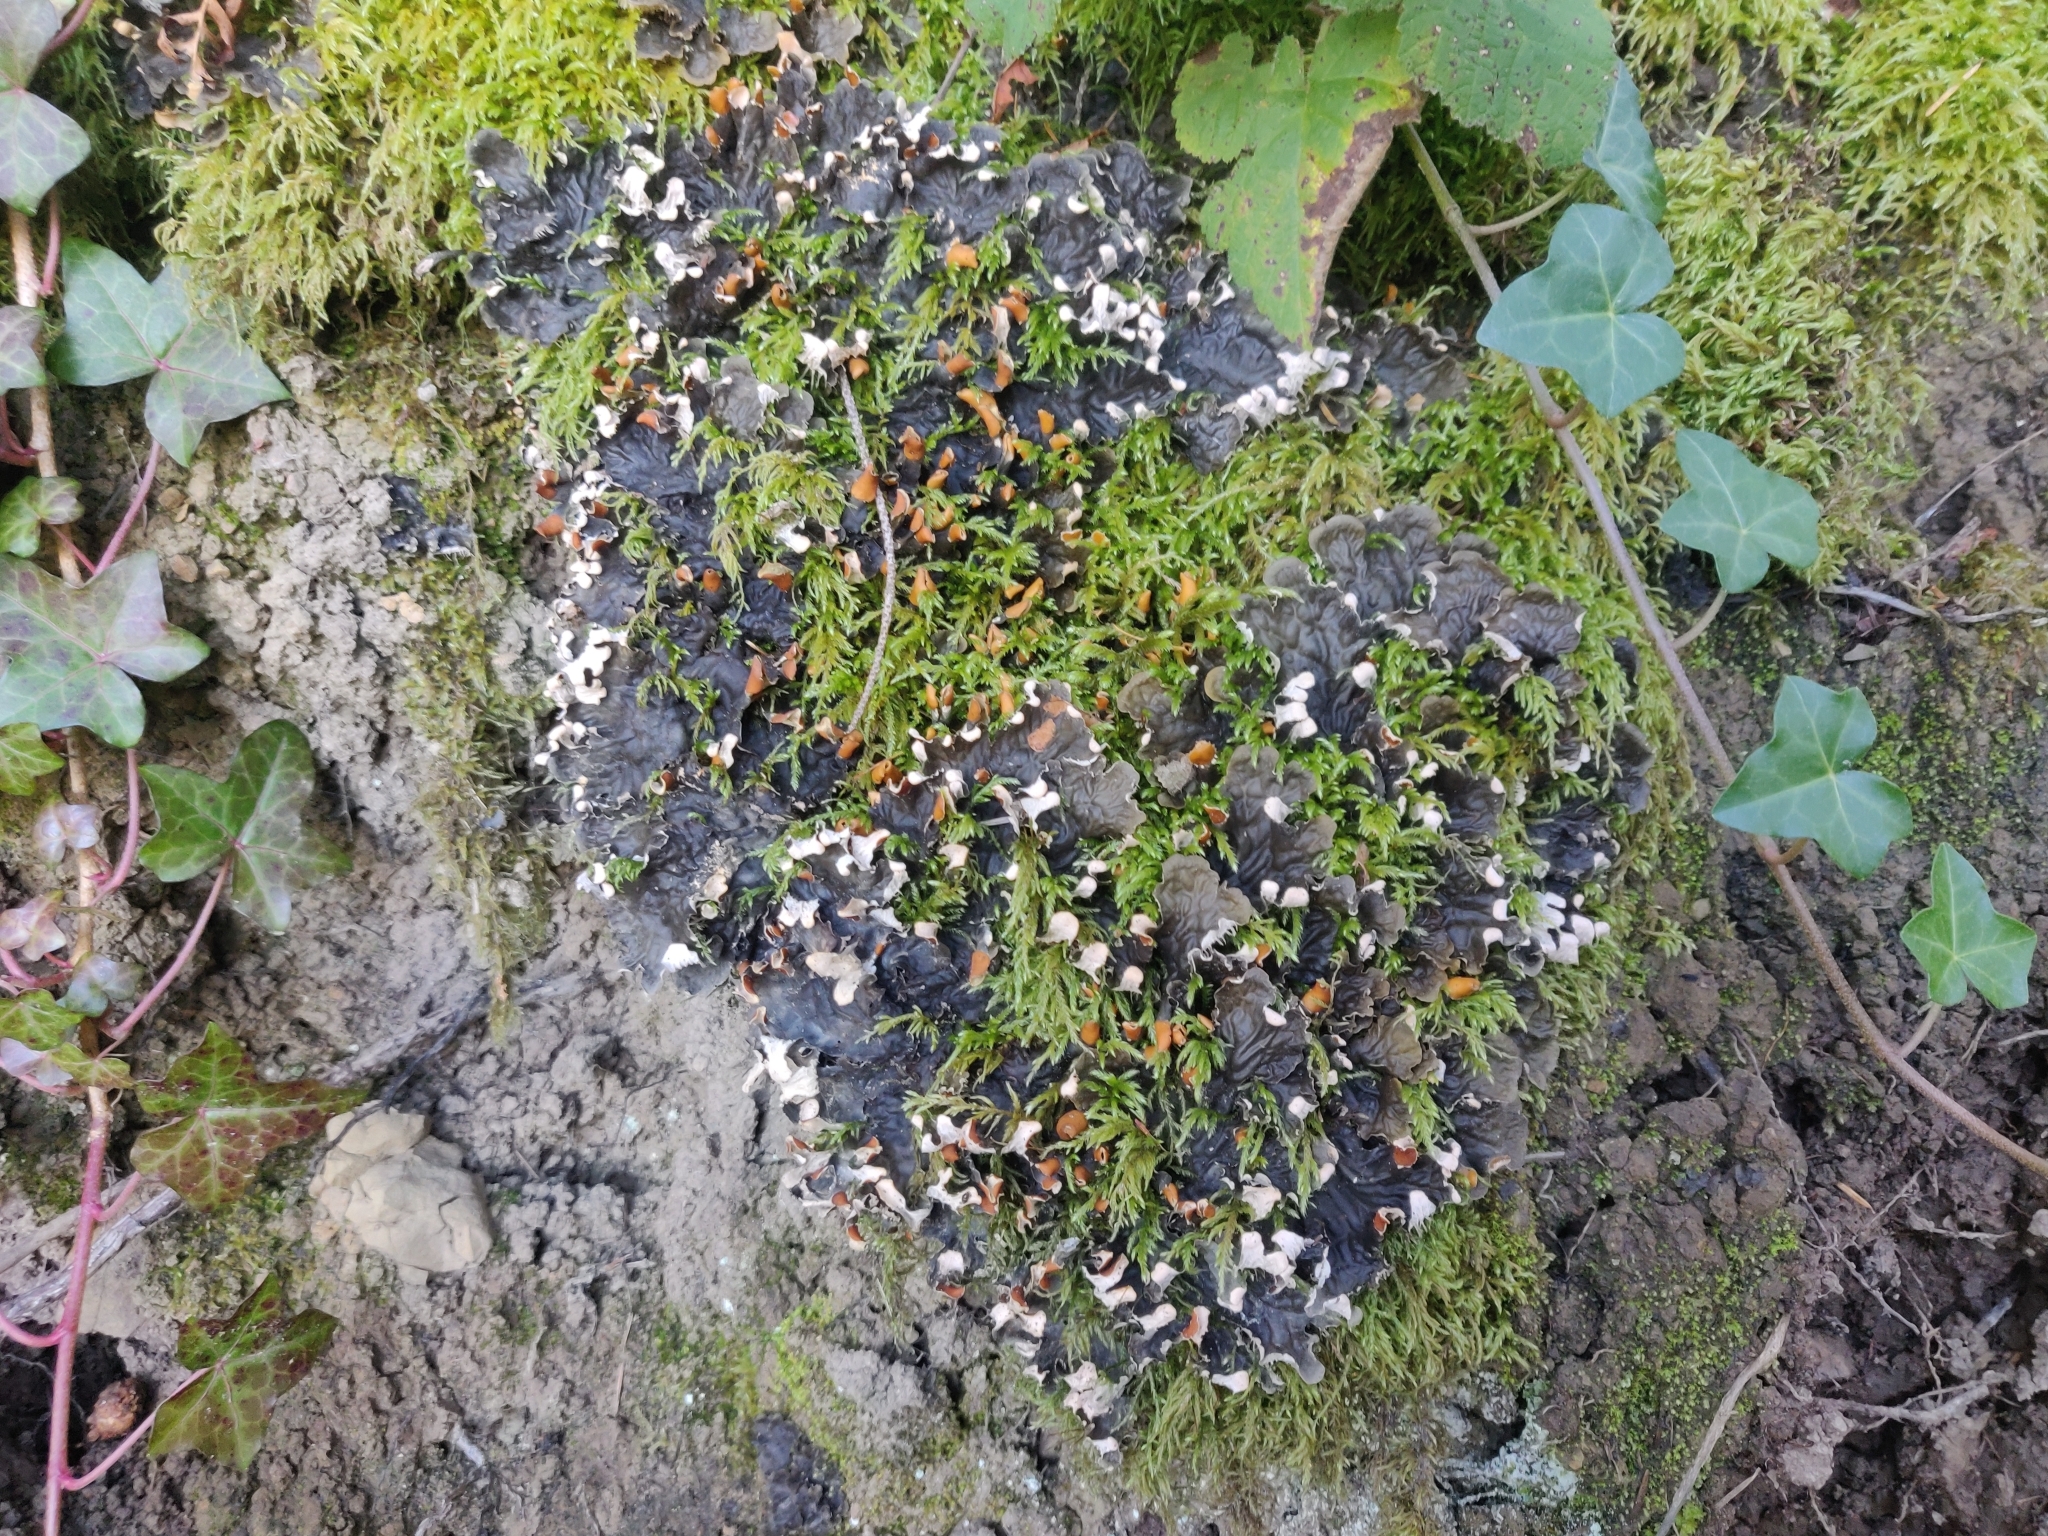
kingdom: Fungi
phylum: Ascomycota
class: Lecanoromycetes
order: Peltigerales
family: Peltigeraceae
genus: Peltigera
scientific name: Peltigera membranacea
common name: Membranous pelt lichen
